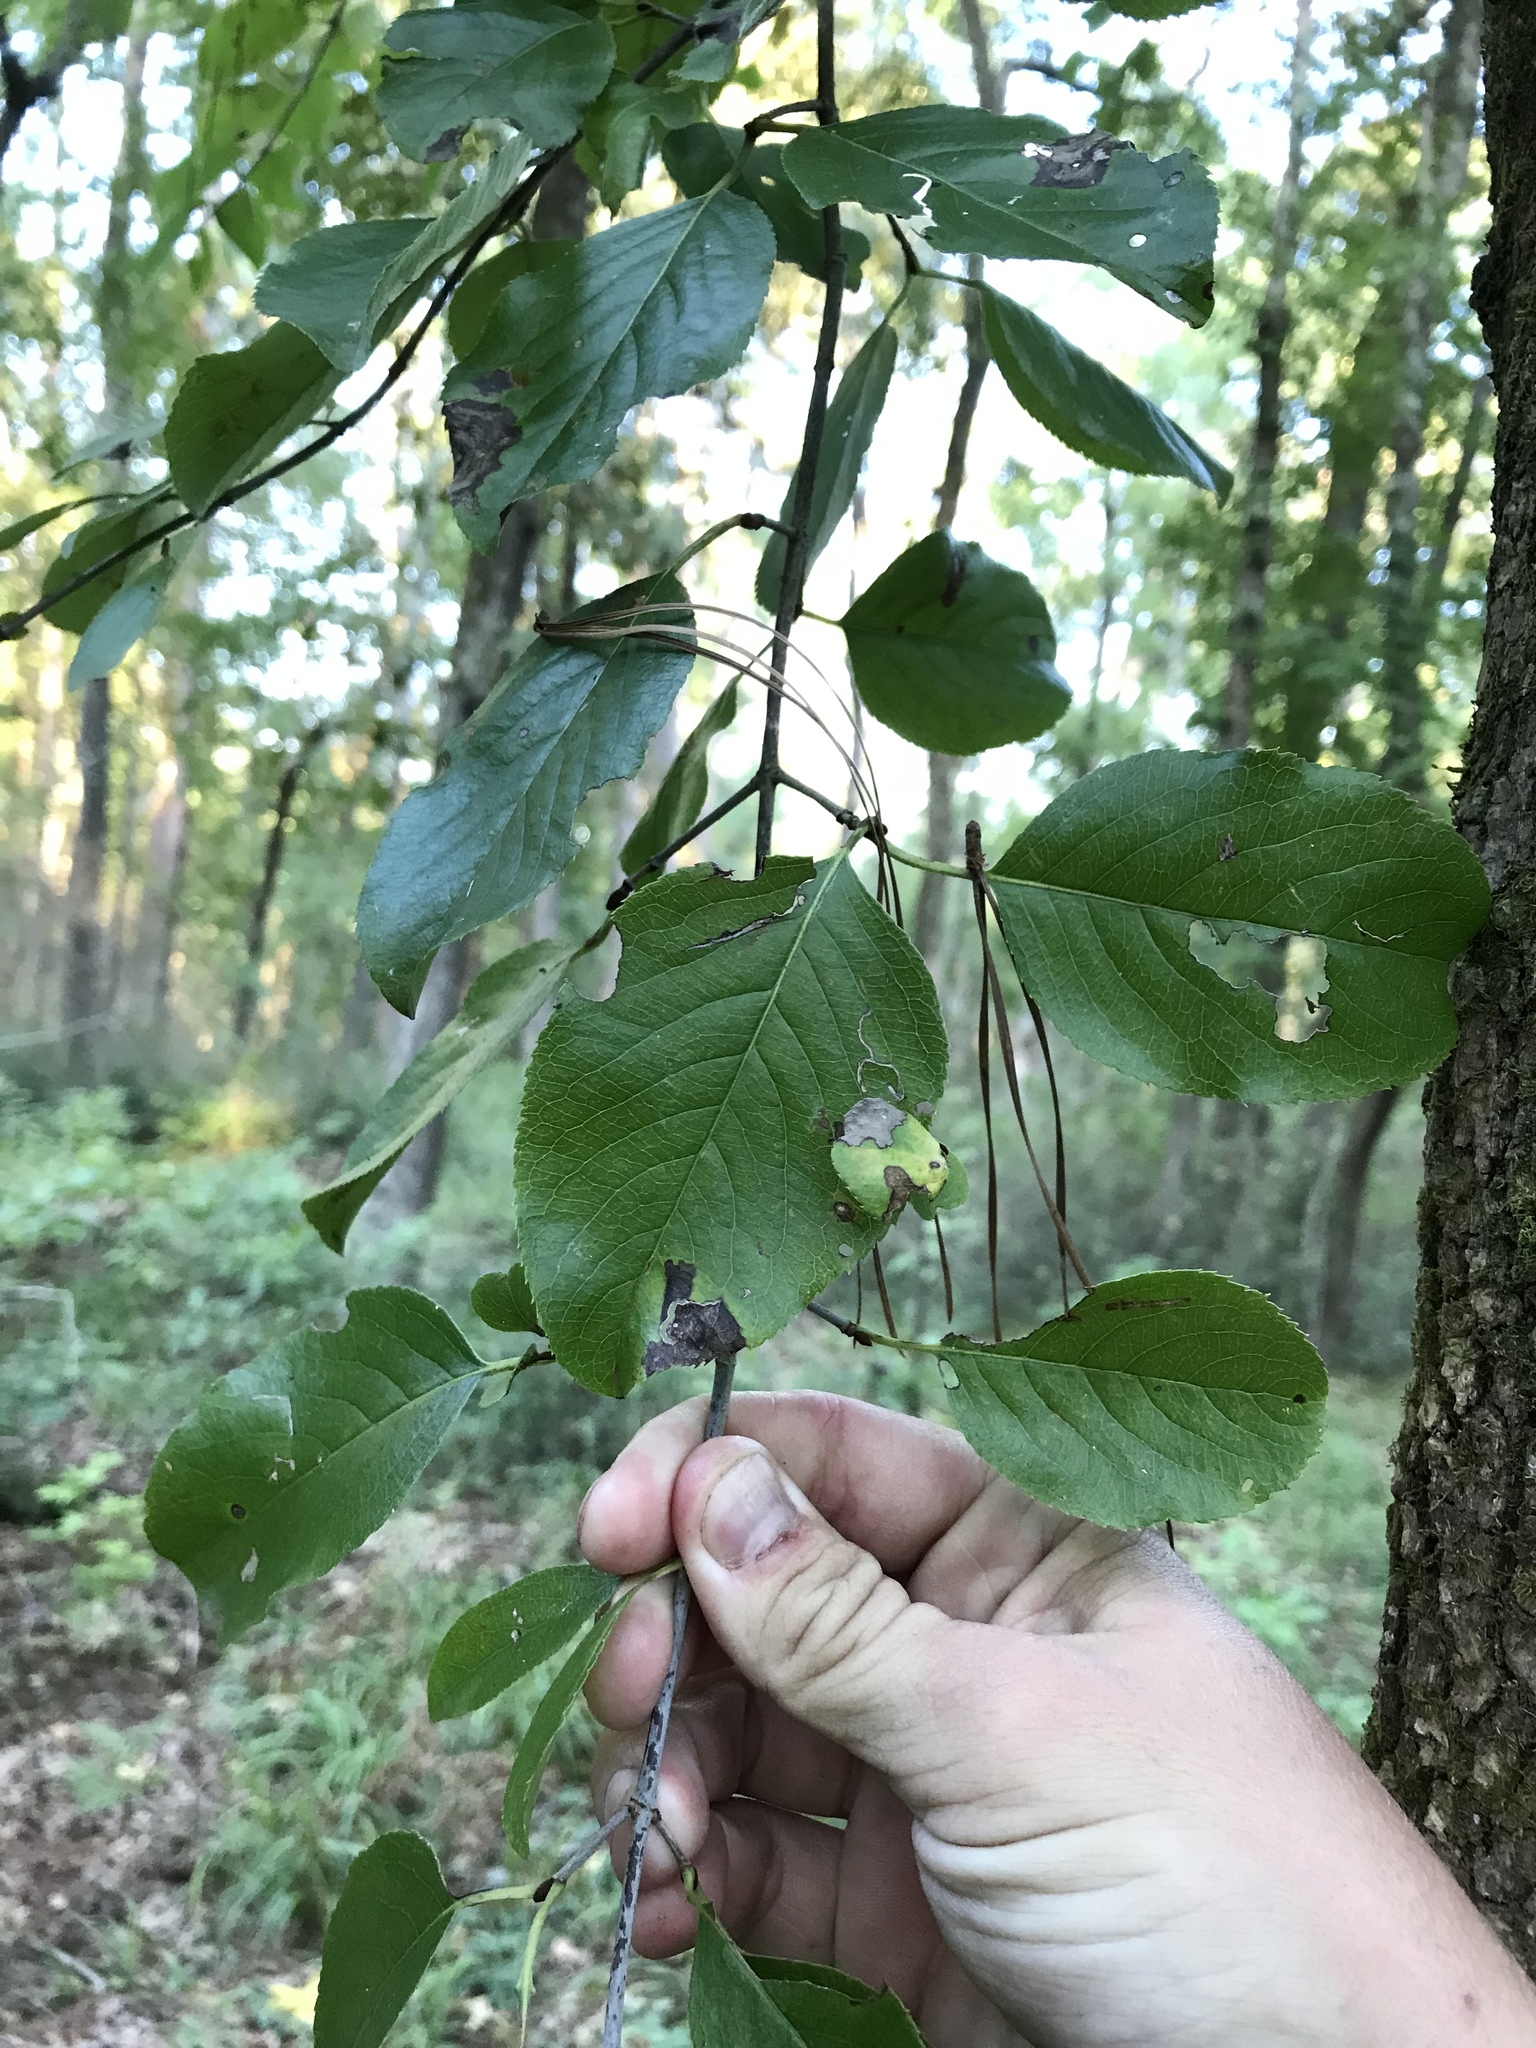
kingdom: Plantae
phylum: Tracheophyta
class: Magnoliopsida
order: Dipsacales
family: Viburnaceae
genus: Viburnum
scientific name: Viburnum rufidulum
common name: Blue haw
